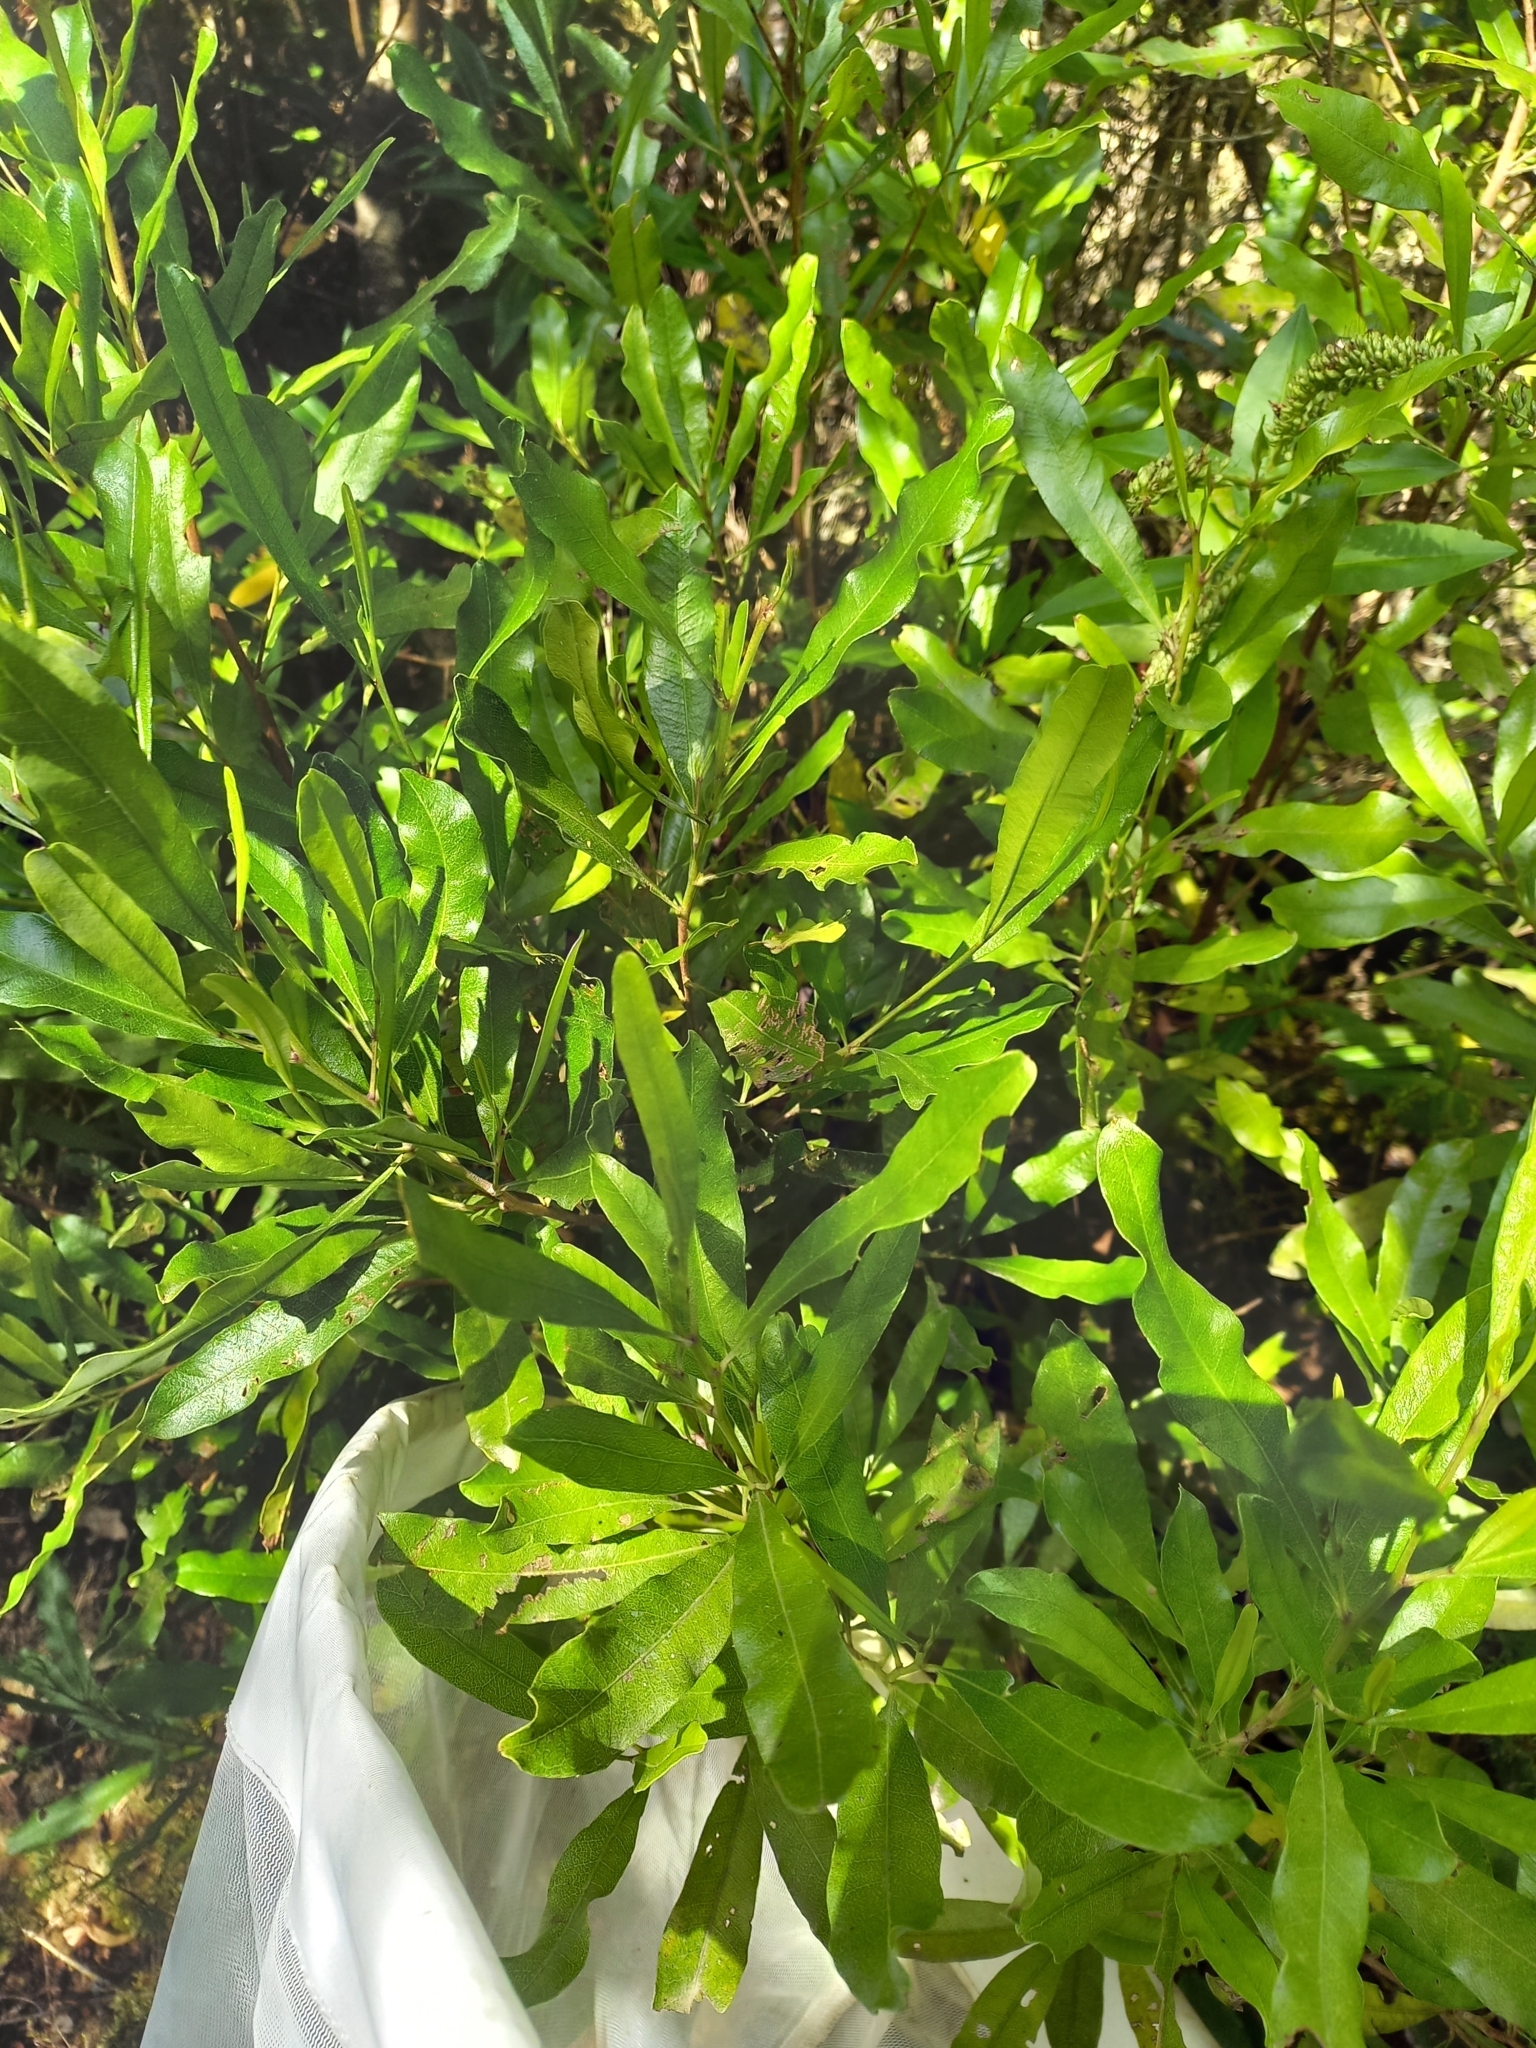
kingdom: Plantae
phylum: Tracheophyta
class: Magnoliopsida
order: Sapindales
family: Sapindaceae
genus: Dodonaea
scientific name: Dodonaea viscosa
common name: Hopbush
